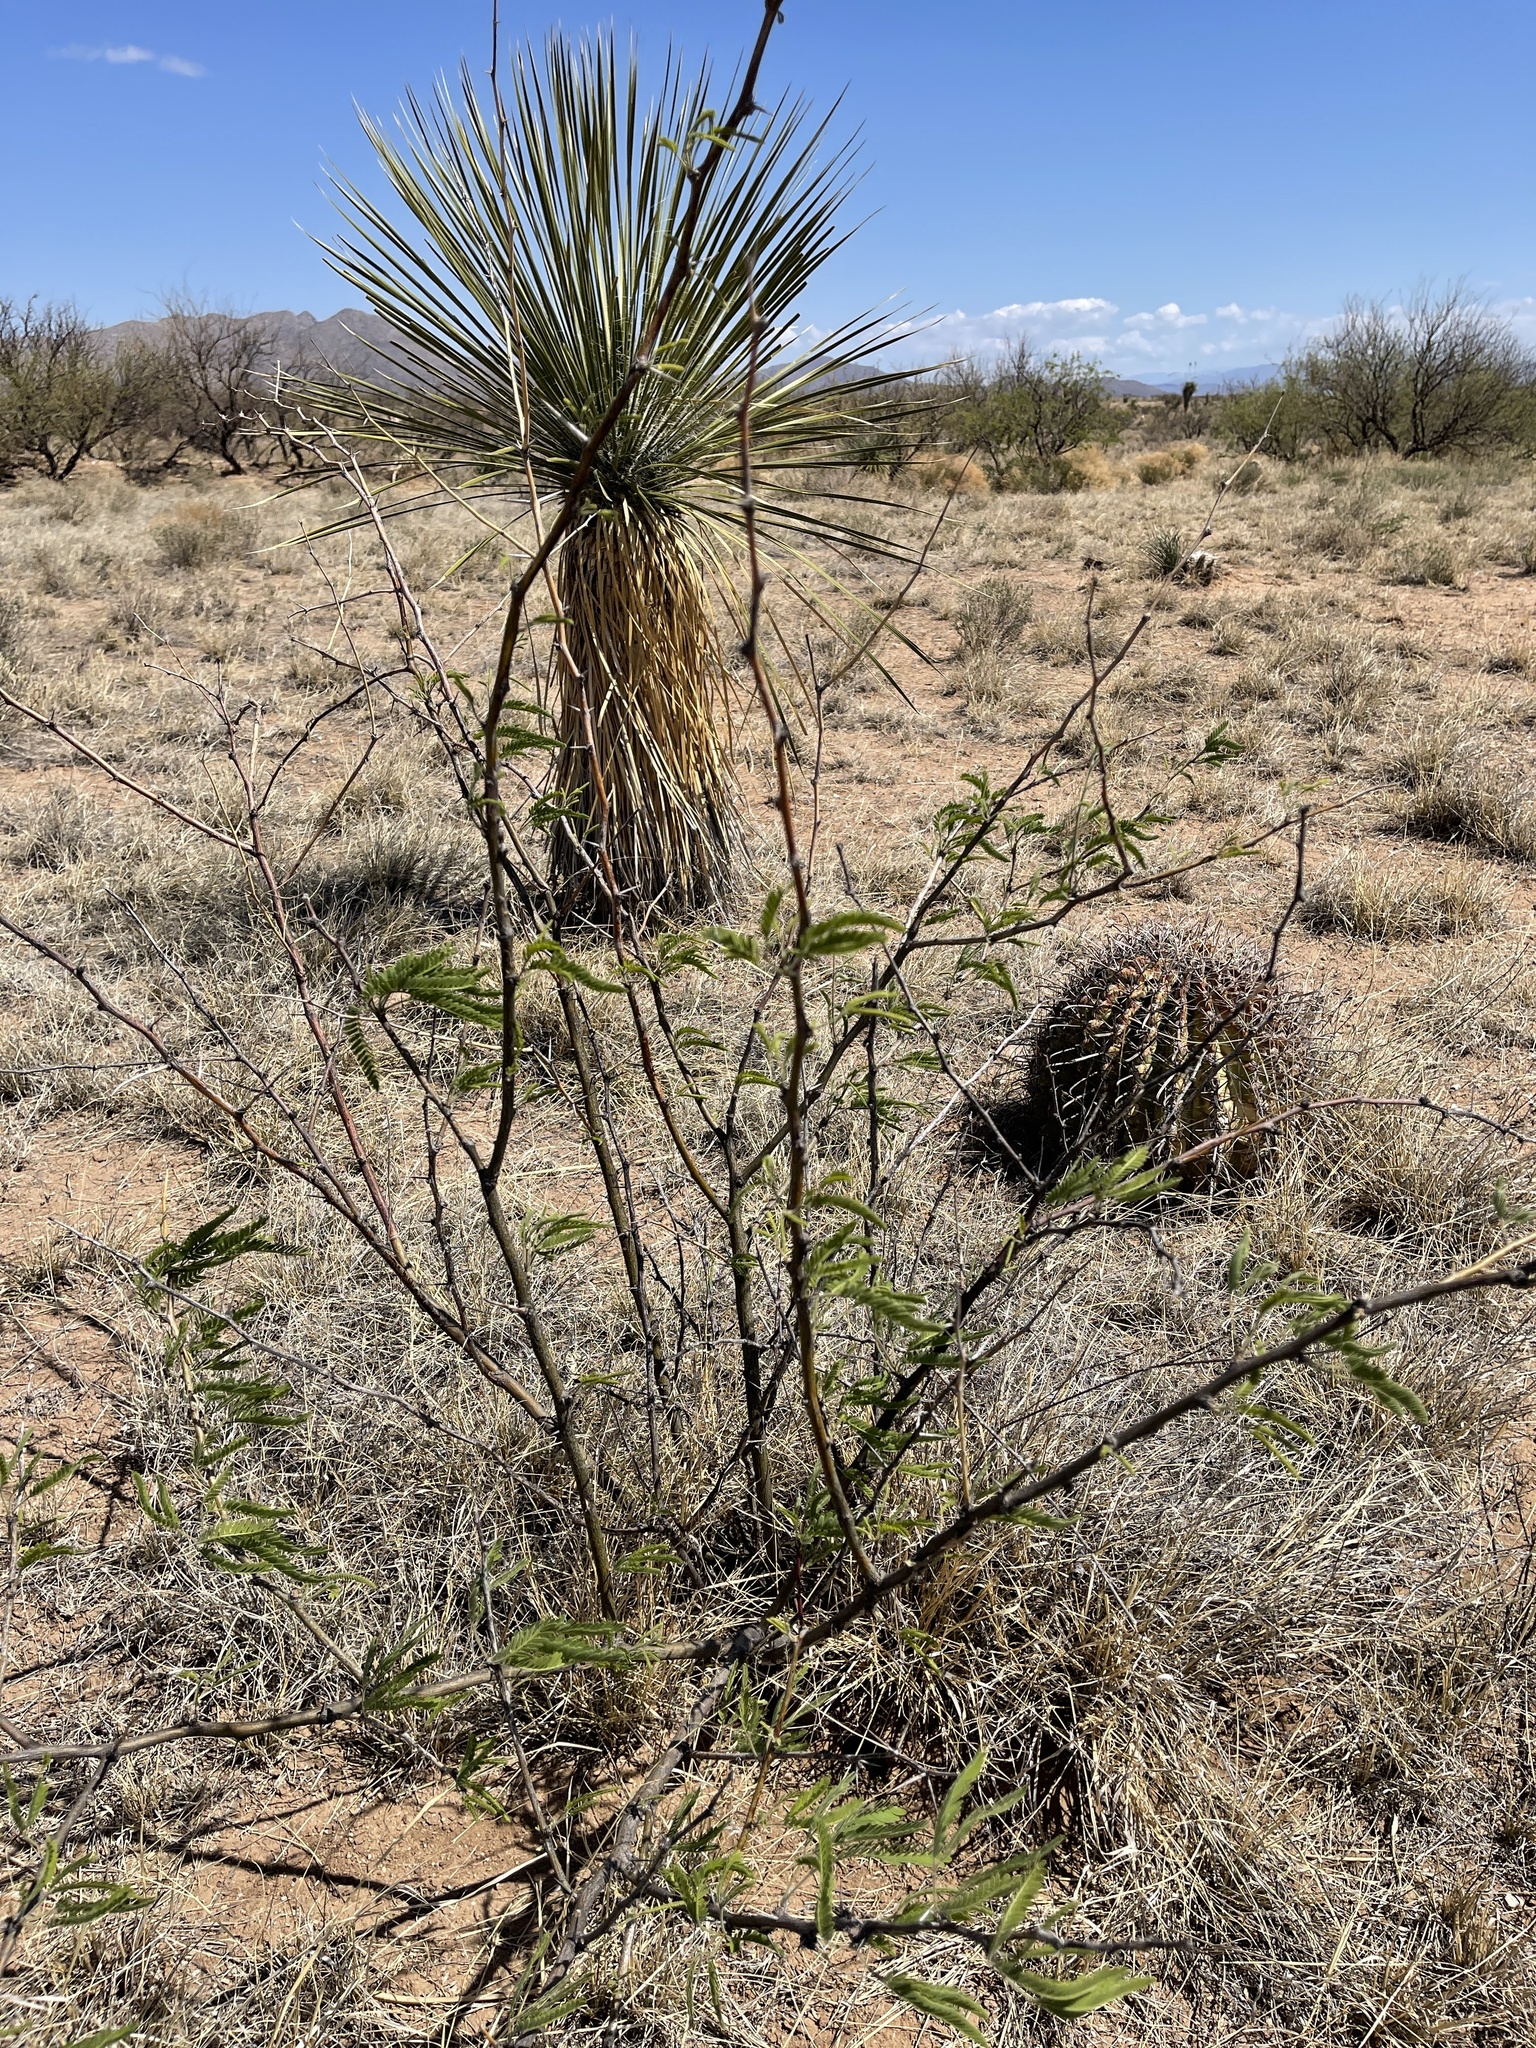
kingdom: Plantae
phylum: Tracheophyta
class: Magnoliopsida
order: Fabales
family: Fabaceae
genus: Prosopis
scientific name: Prosopis glandulosa
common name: Honey mesquite
